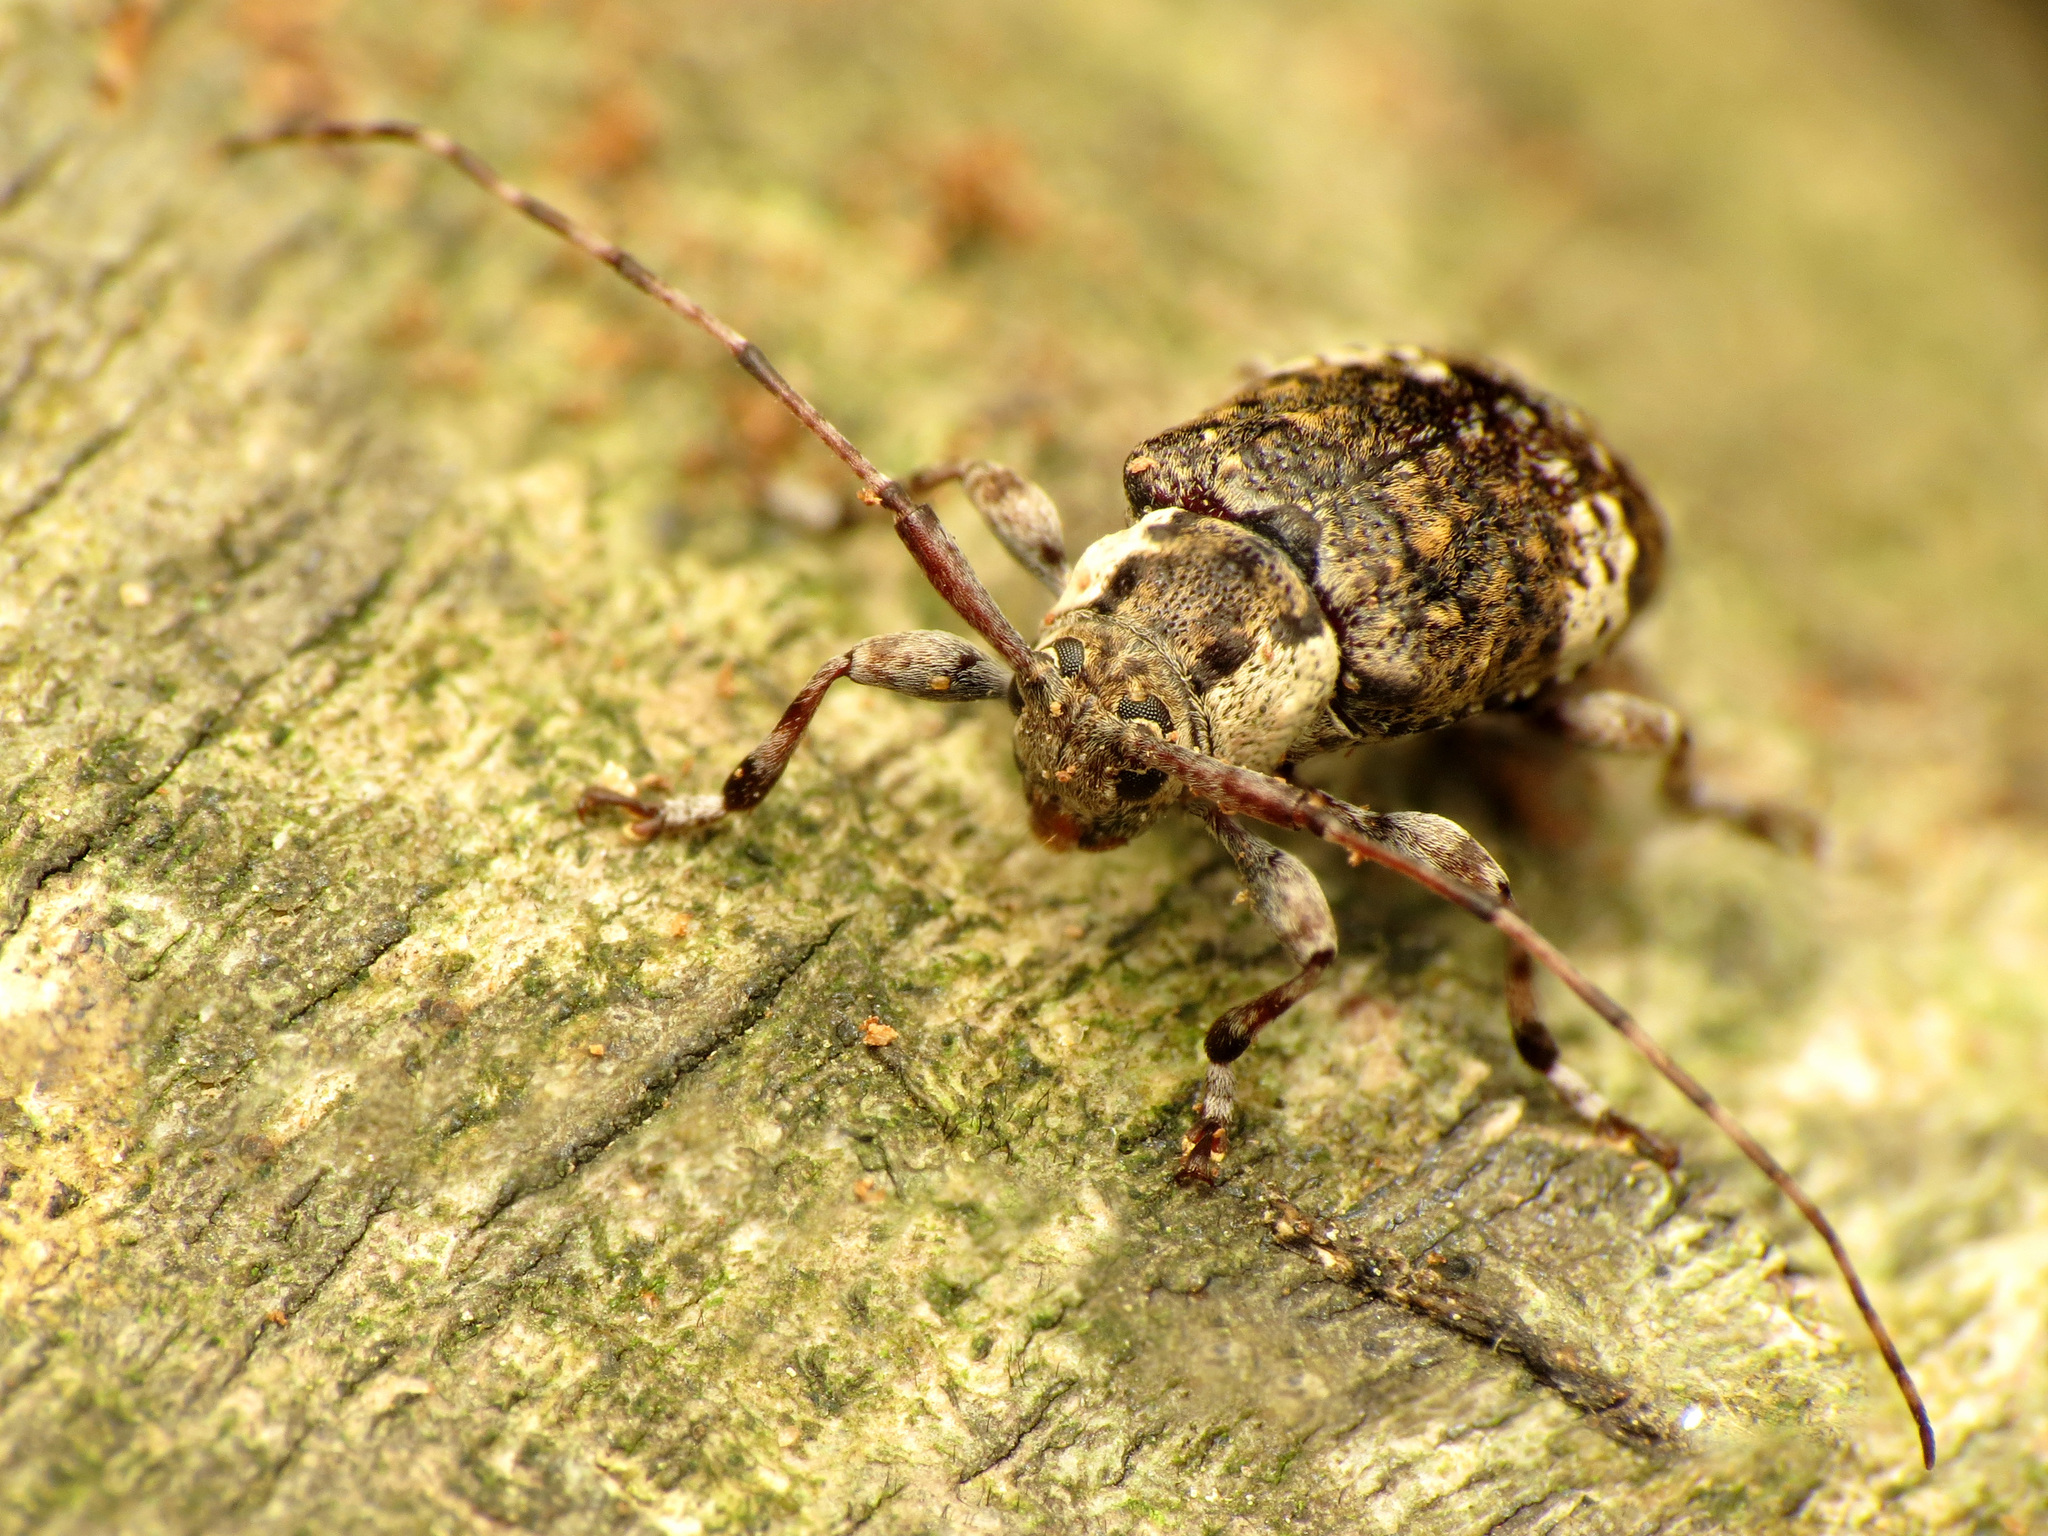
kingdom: Animalia
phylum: Arthropoda
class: Insecta
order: Coleoptera
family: Cerambycidae
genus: Astylopsis
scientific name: Astylopsis macula
